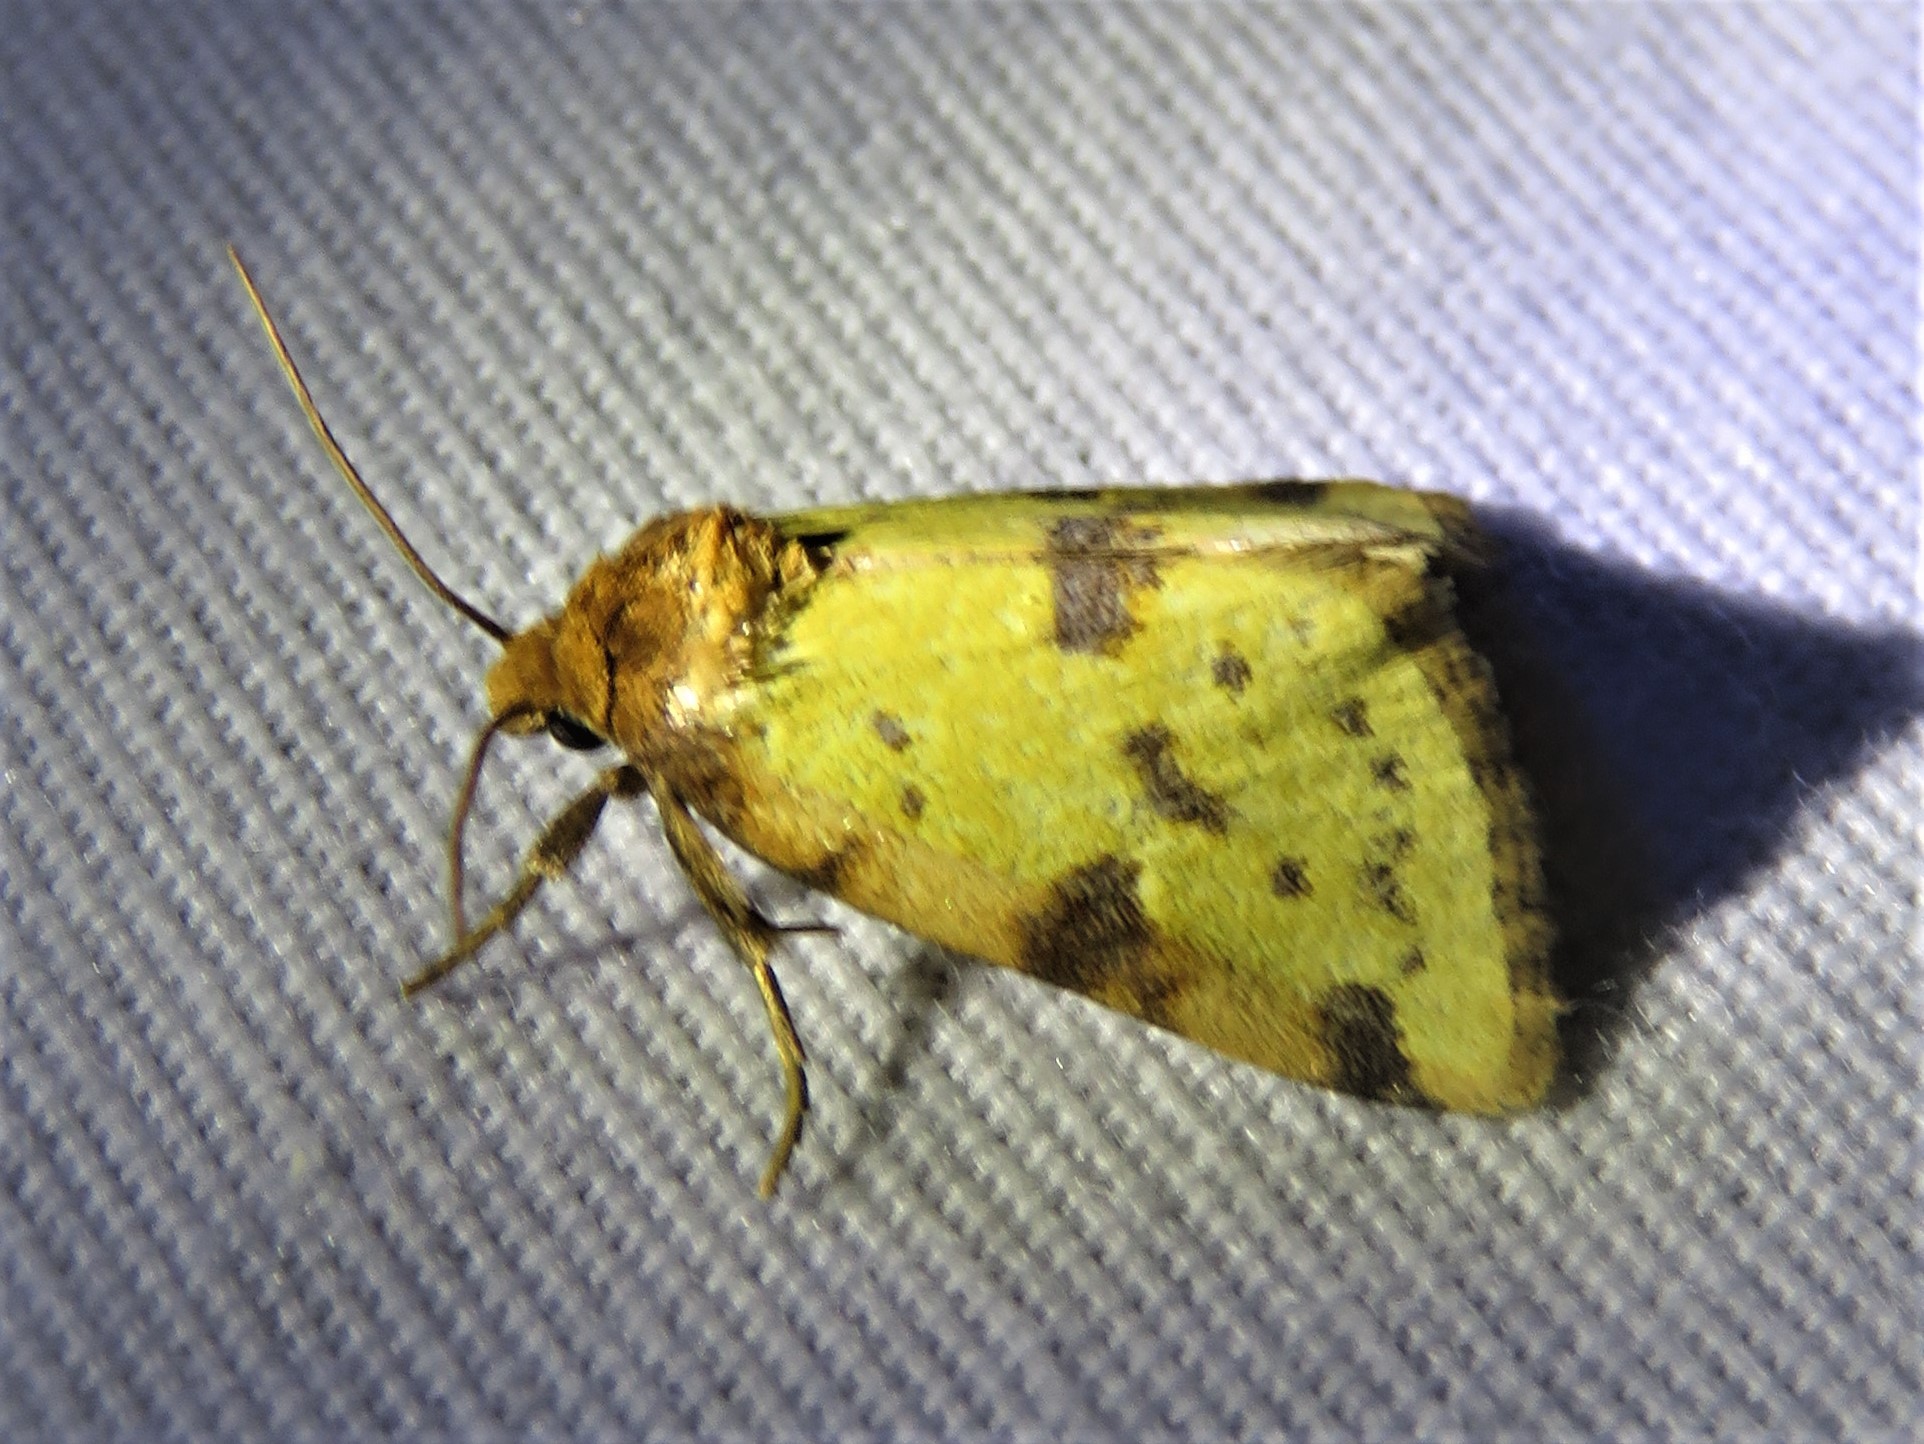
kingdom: Animalia
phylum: Arthropoda
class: Insecta
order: Lepidoptera
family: Noctuidae
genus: Azenia
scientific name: Azenia obtusa
